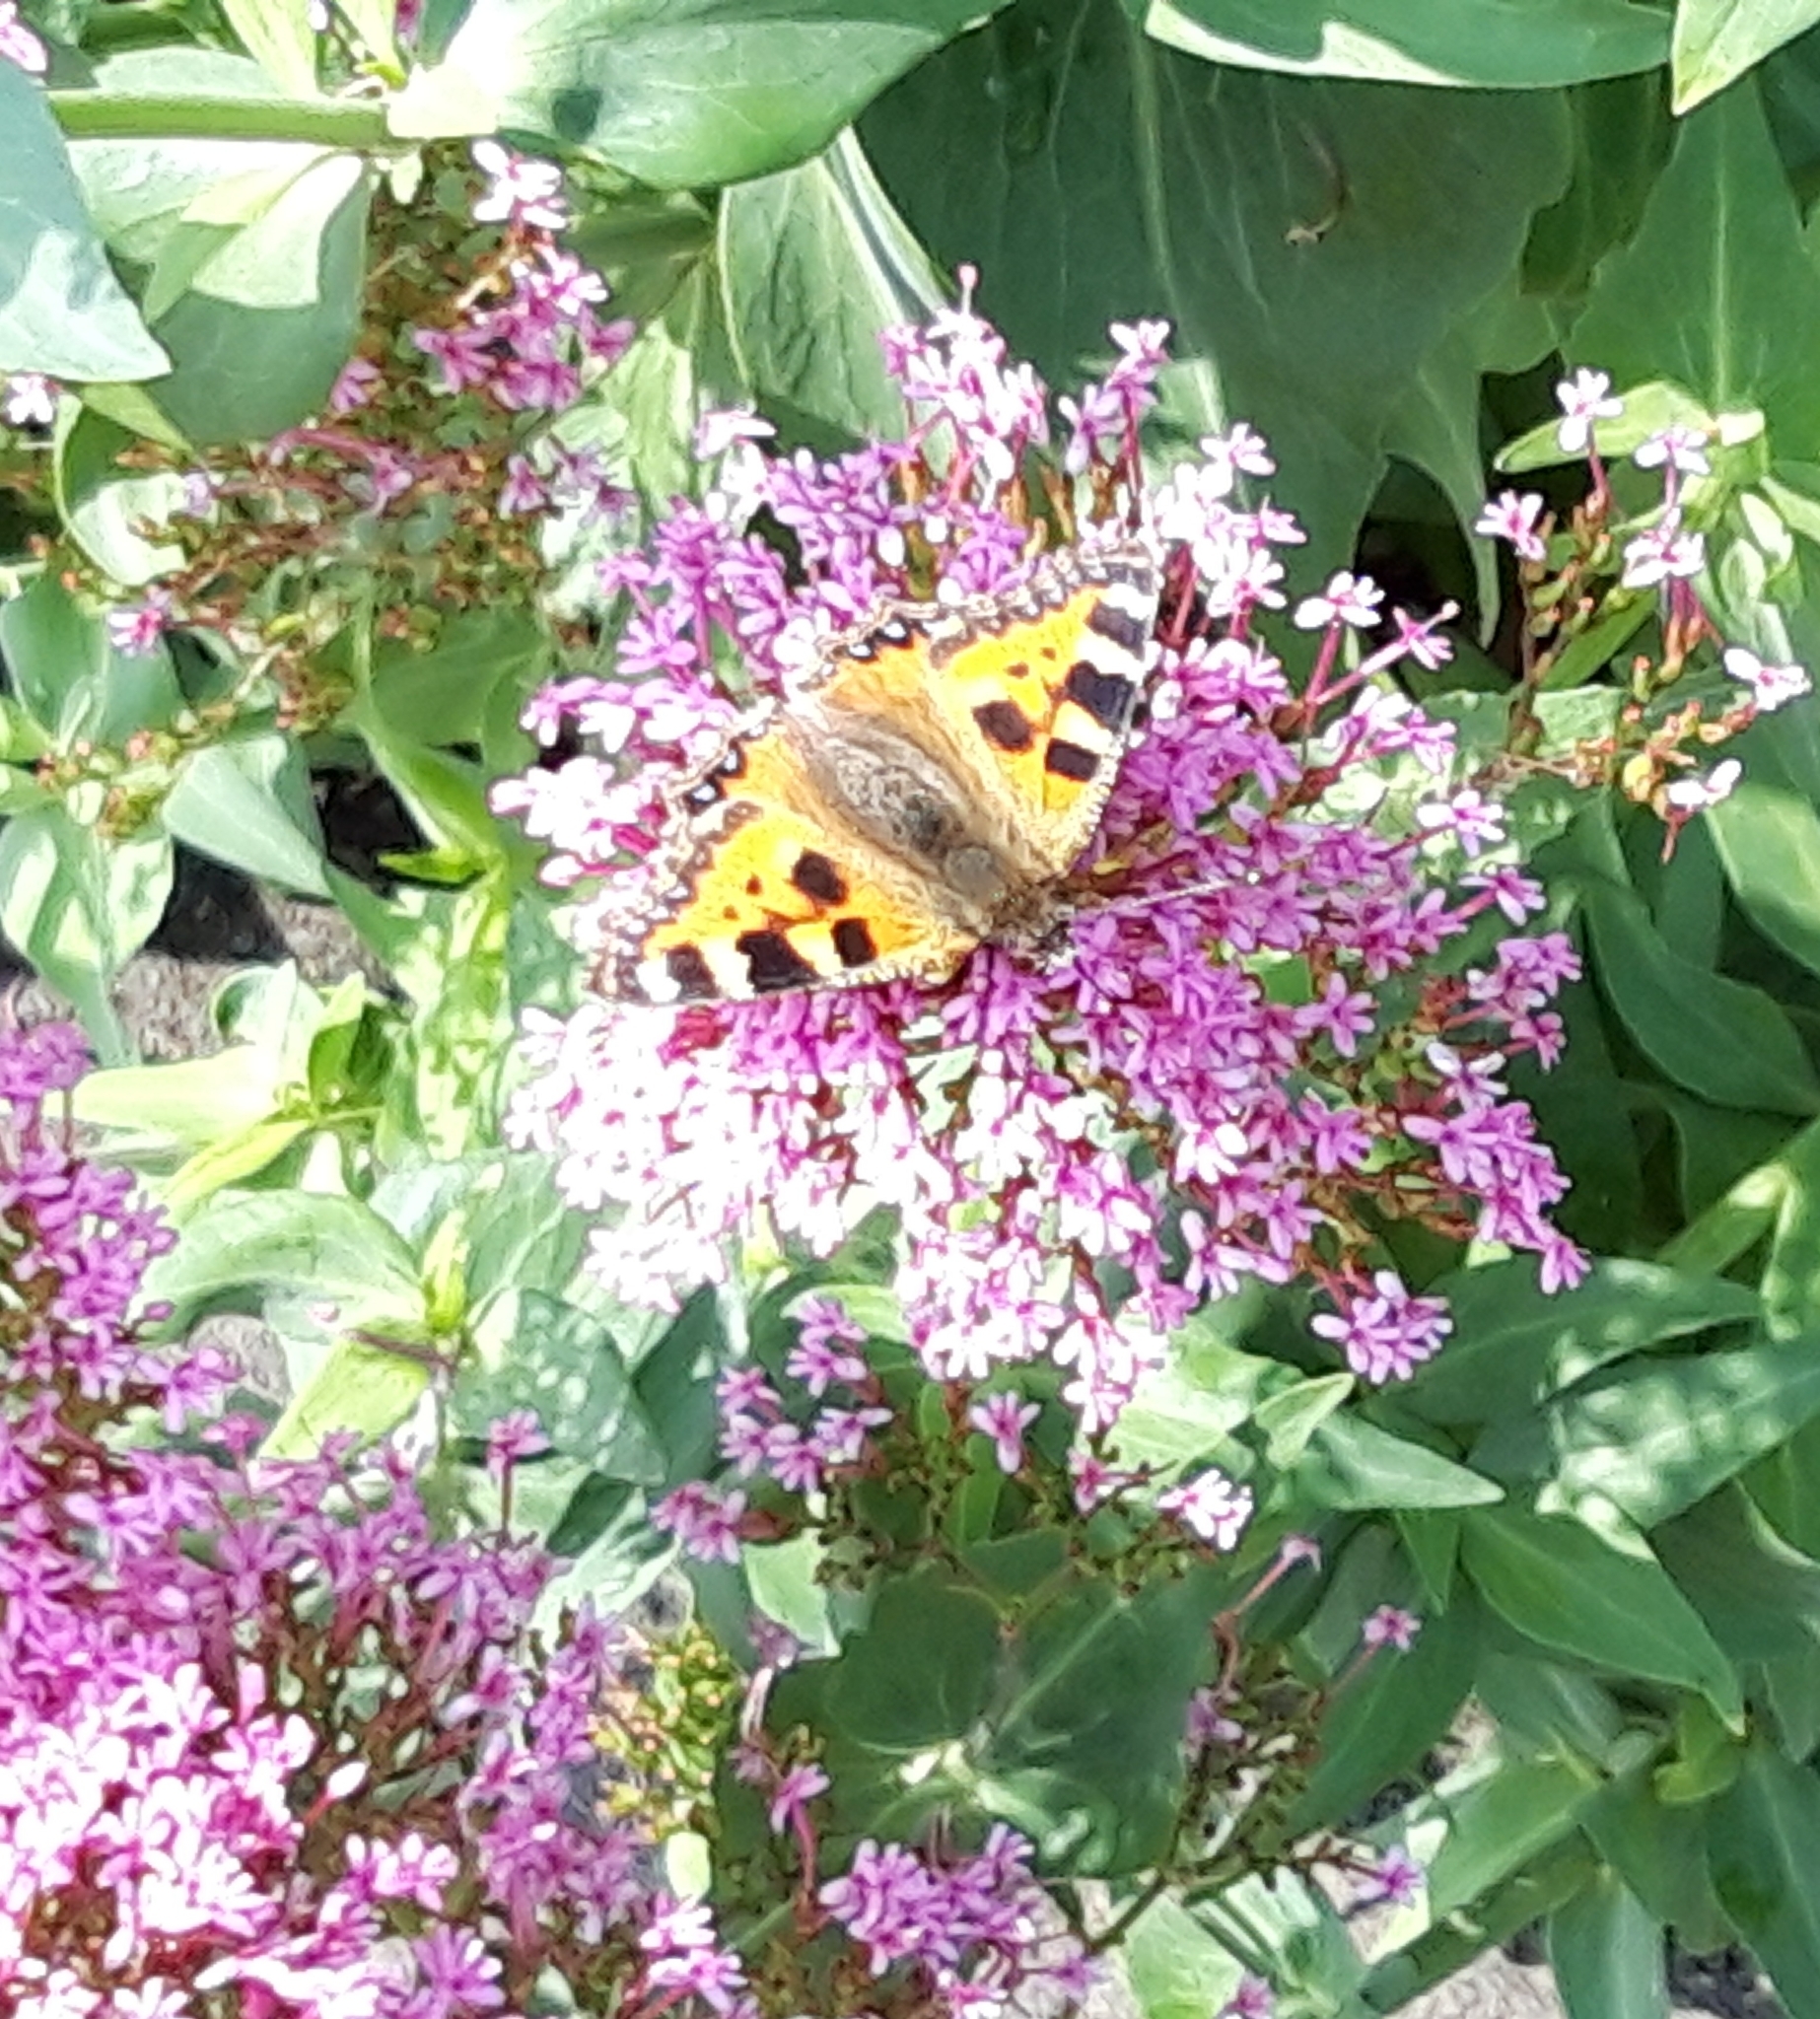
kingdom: Animalia
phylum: Arthropoda
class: Insecta
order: Lepidoptera
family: Nymphalidae
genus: Aglais
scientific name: Aglais urticae
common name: Small tortoiseshell
